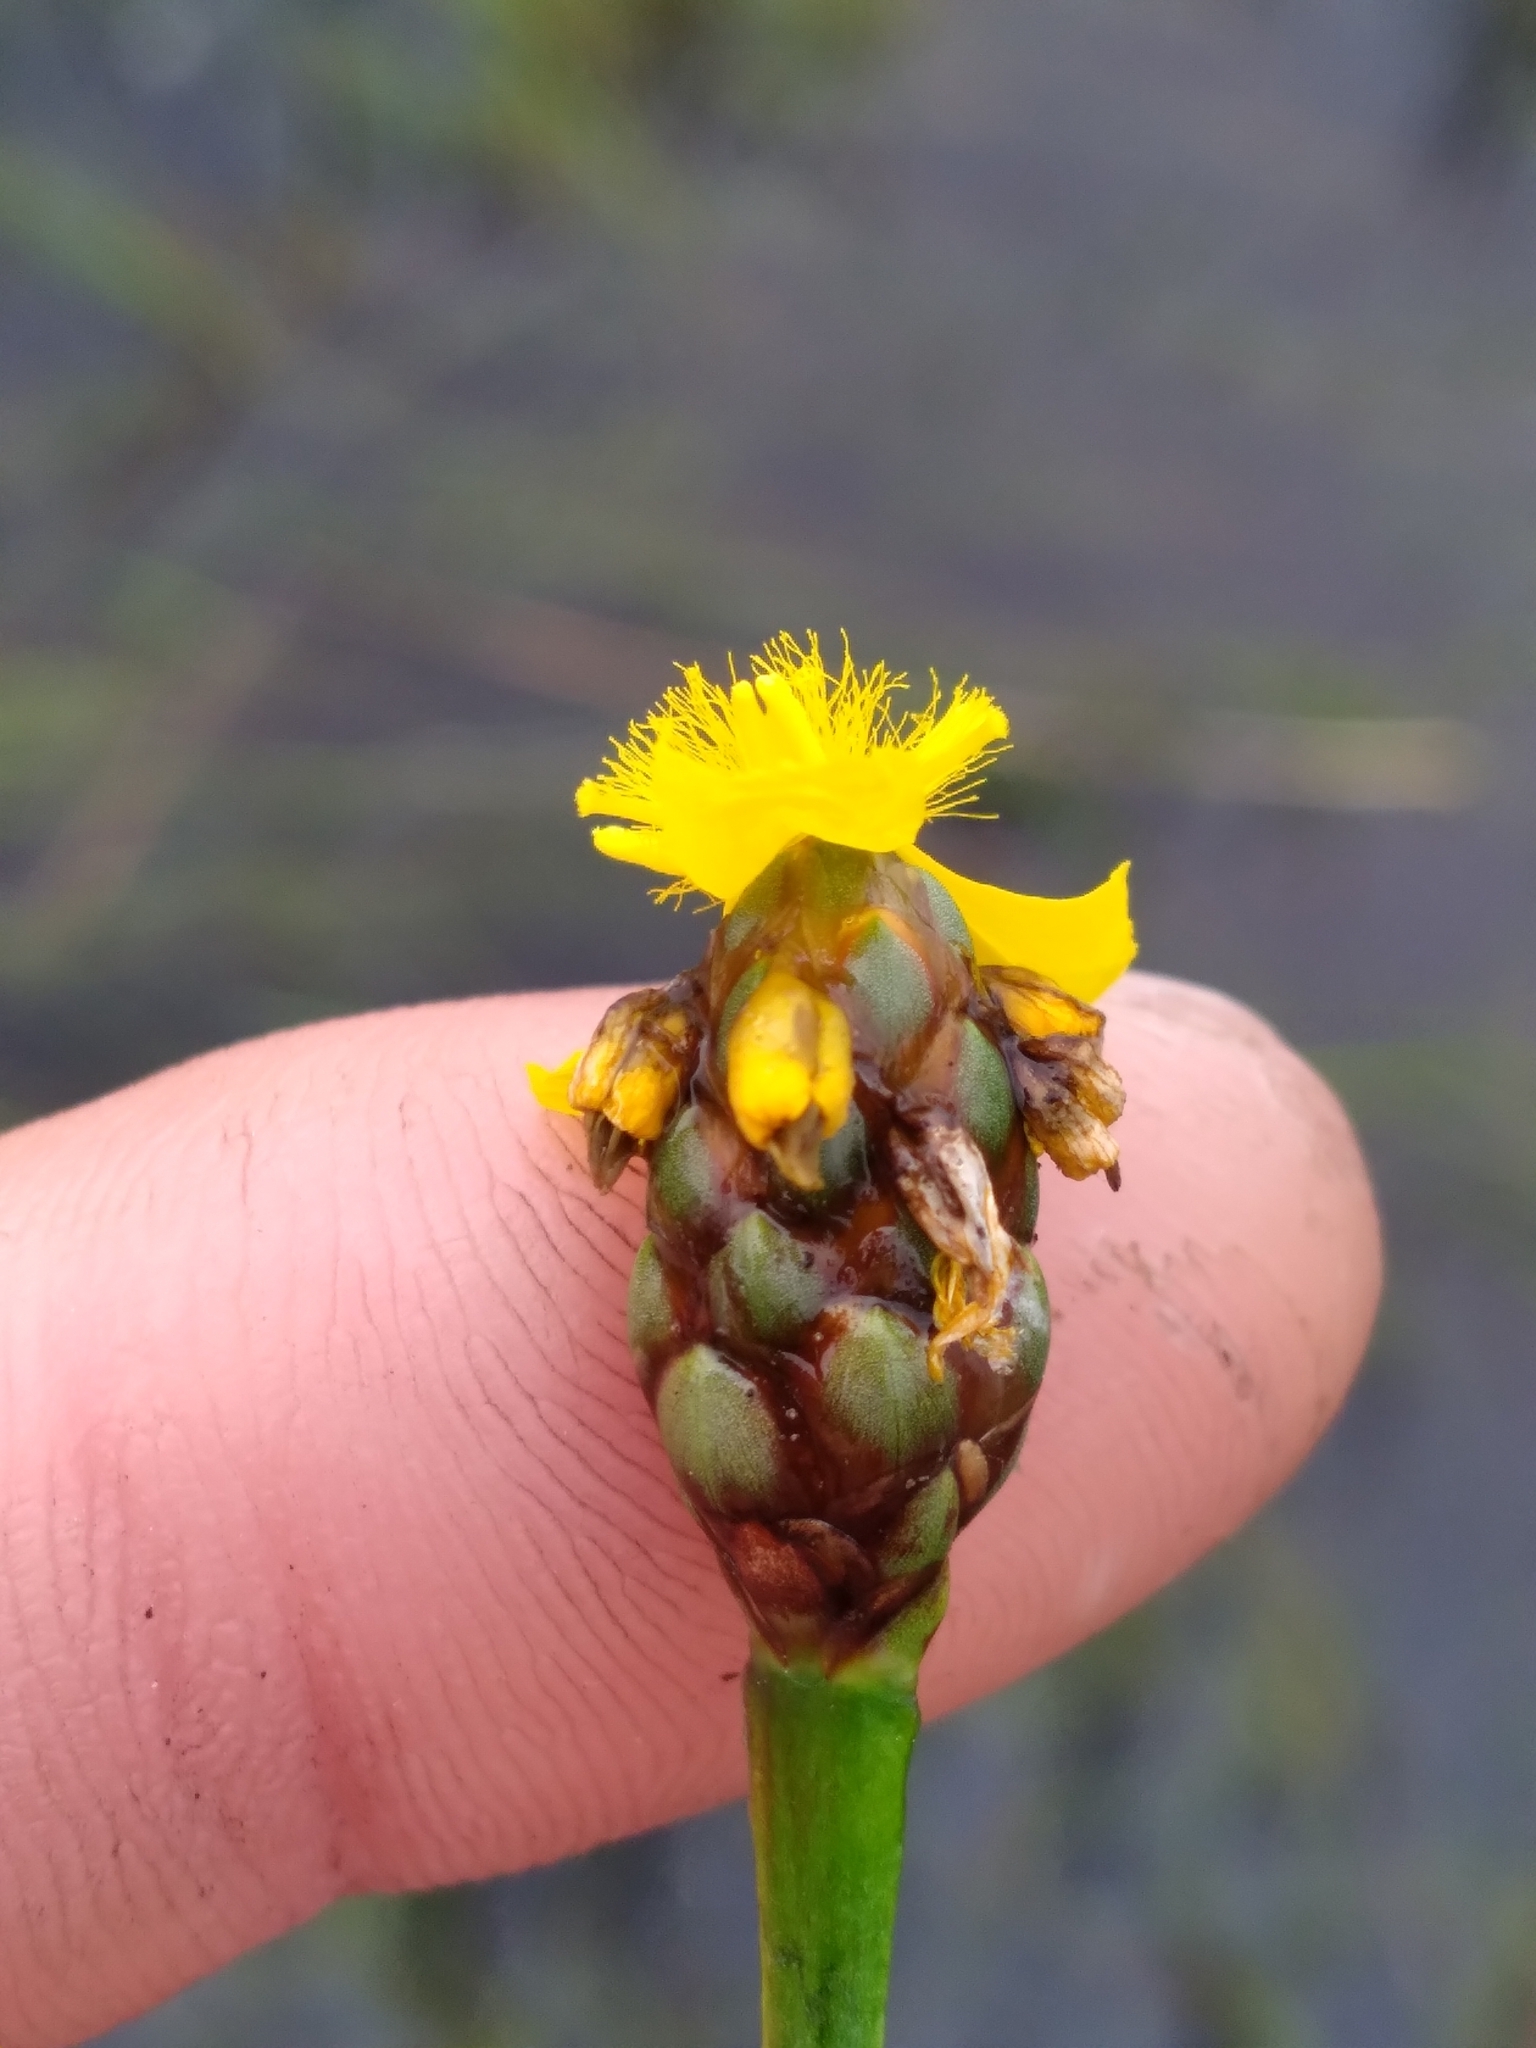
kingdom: Plantae
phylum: Tracheophyta
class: Liliopsida
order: Poales
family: Xyridaceae
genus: Xyris
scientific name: Xyris smalliana
